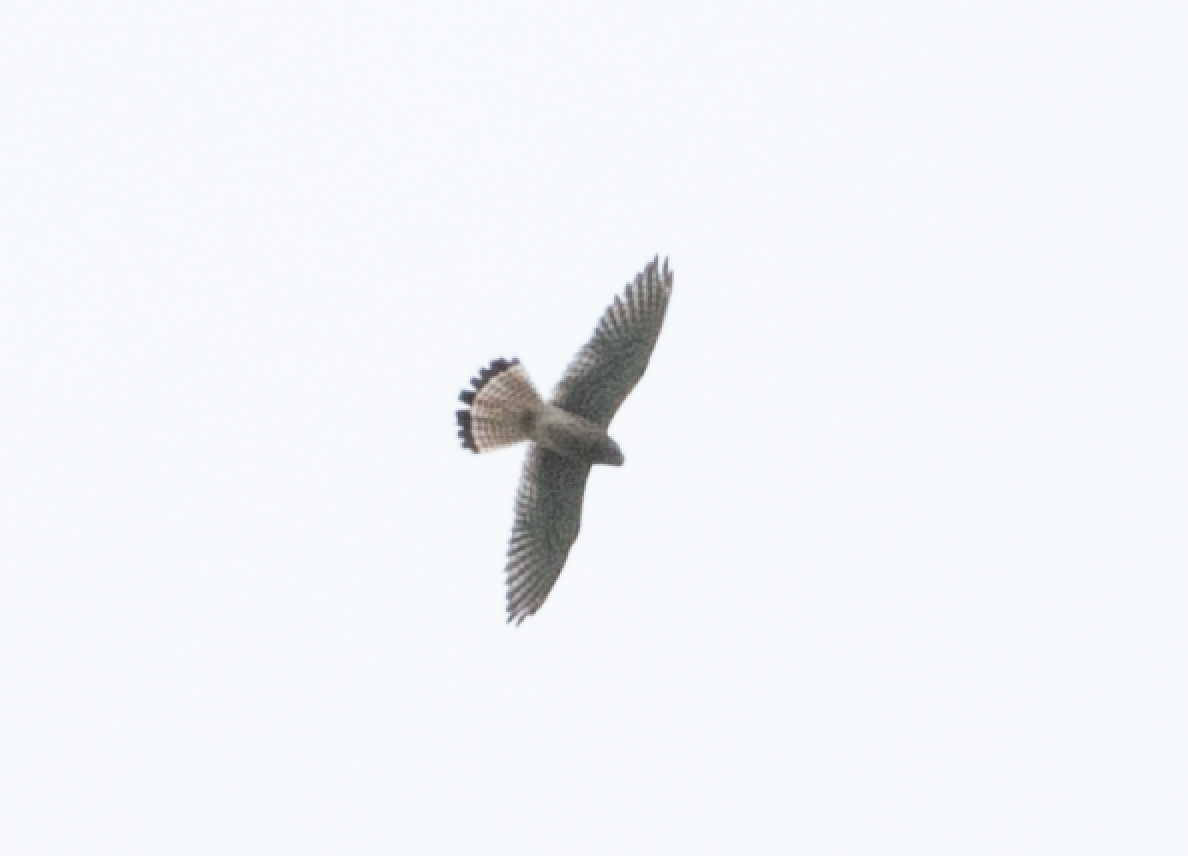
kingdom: Animalia
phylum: Chordata
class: Aves
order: Falconiformes
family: Falconidae
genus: Falco
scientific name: Falco tinnunculus
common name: Common kestrel
